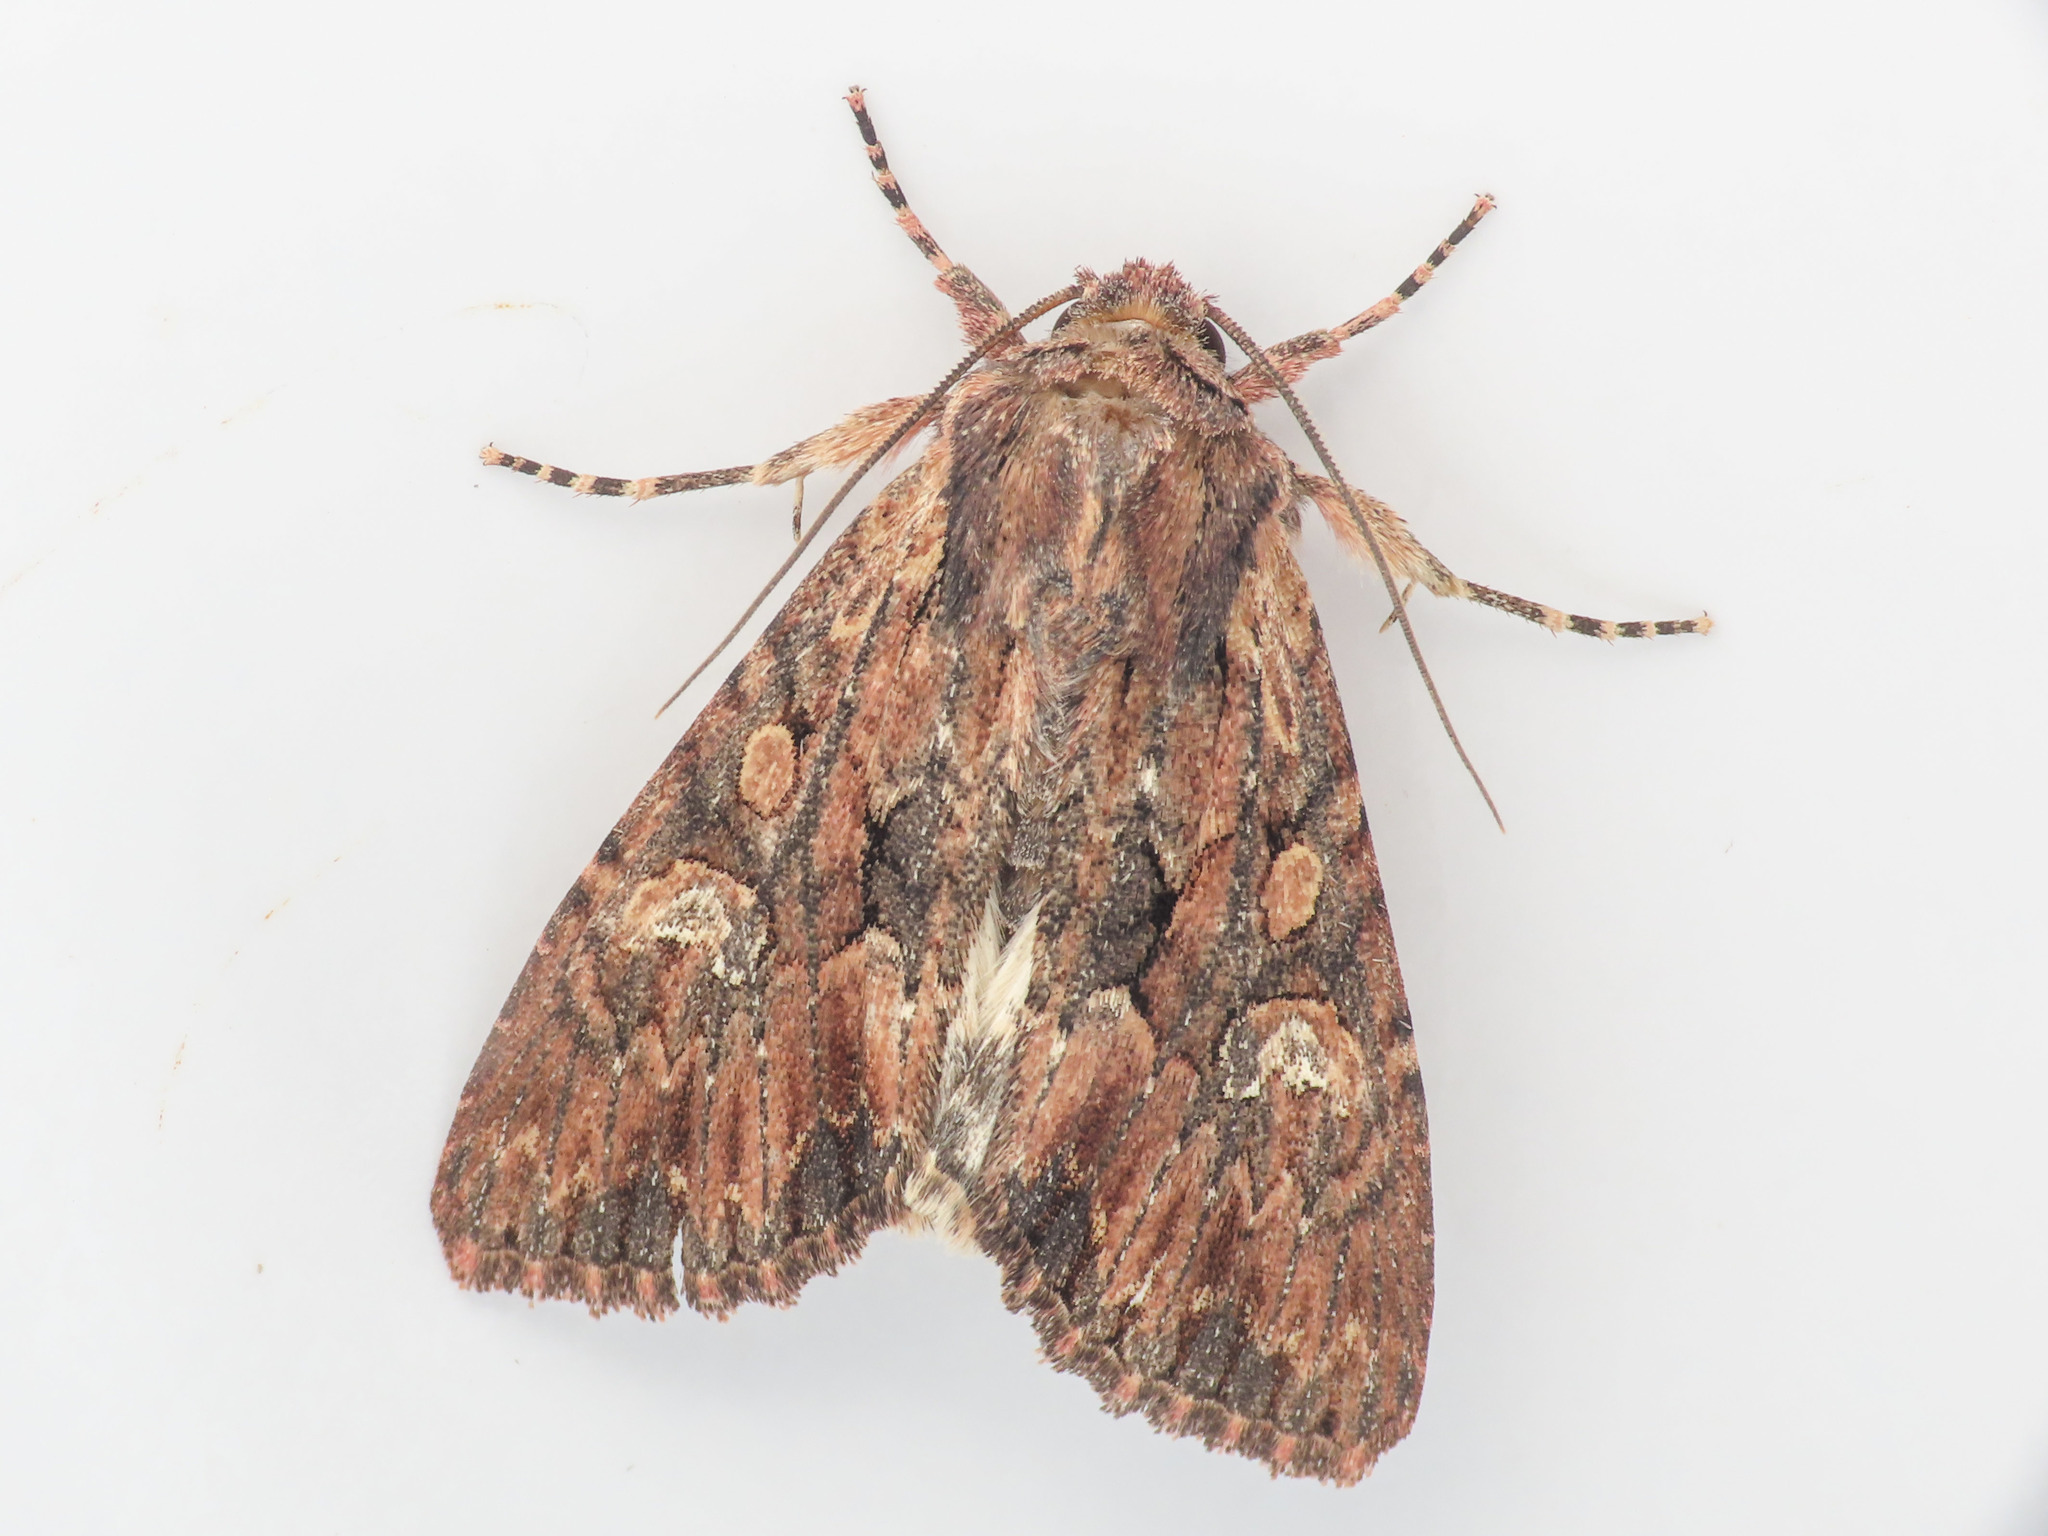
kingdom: Animalia
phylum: Arthropoda
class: Insecta
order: Lepidoptera
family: Noctuidae
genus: Mniotype
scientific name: Mniotype solieri
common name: Bedrule brocade
